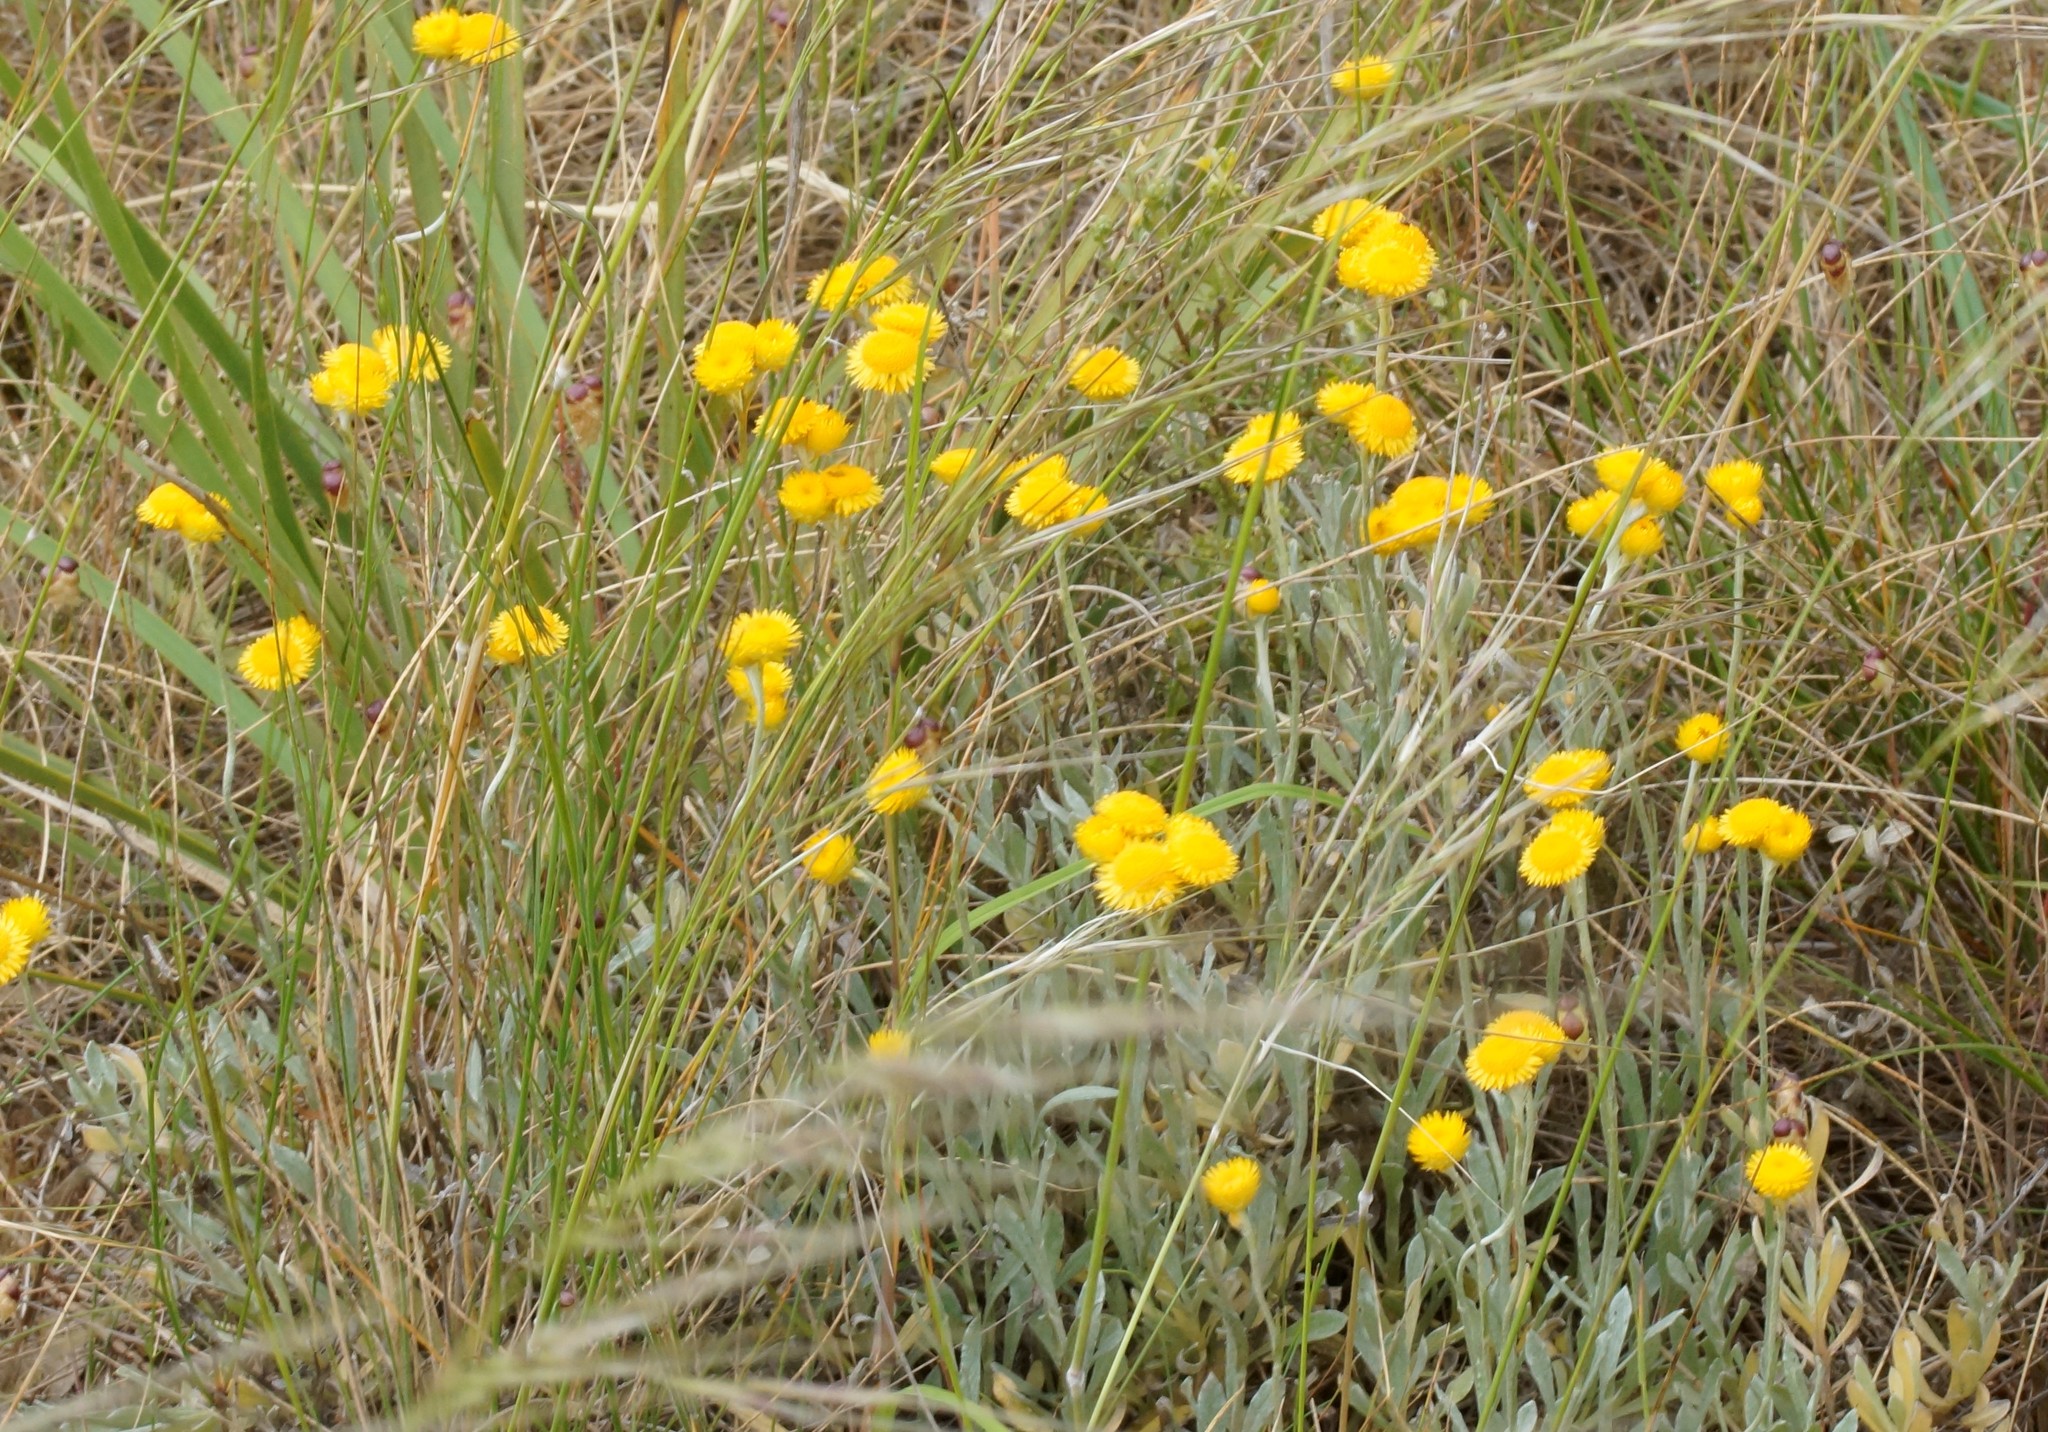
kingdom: Plantae
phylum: Tracheophyta
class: Magnoliopsida
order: Asterales
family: Asteraceae
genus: Chrysocephalum
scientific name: Chrysocephalum apiculatum
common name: Common everlasting
